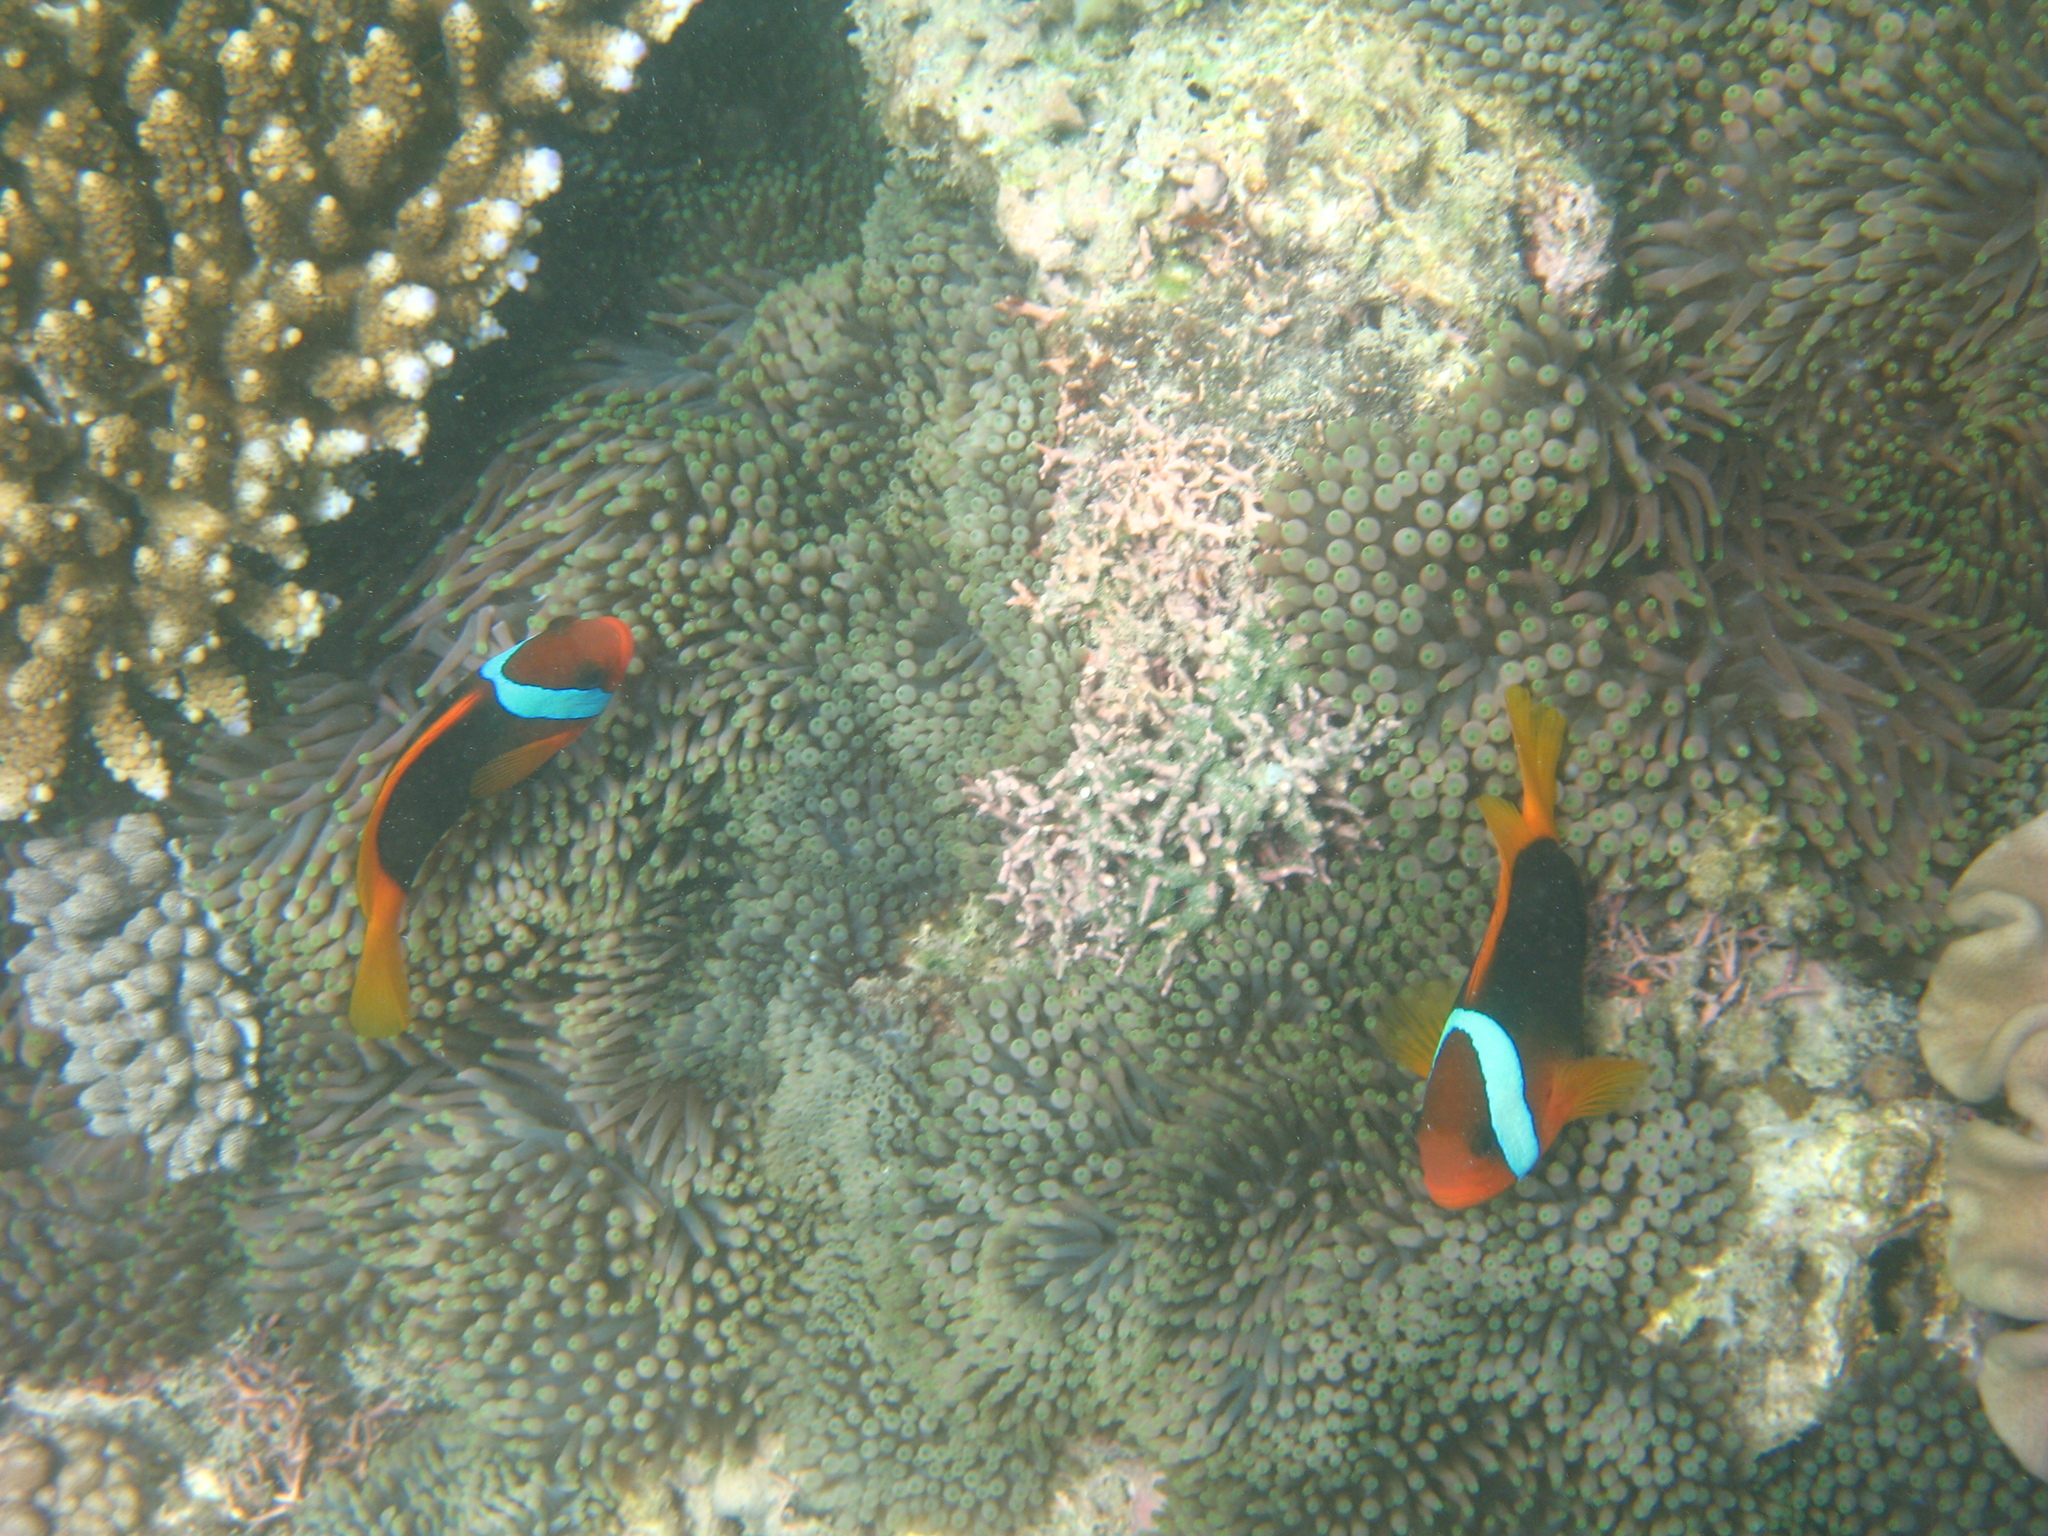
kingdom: Animalia
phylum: Chordata
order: Perciformes
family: Pomacentridae
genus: Amphiprion
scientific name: Amphiprion melanopus
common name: Black anemonefish
